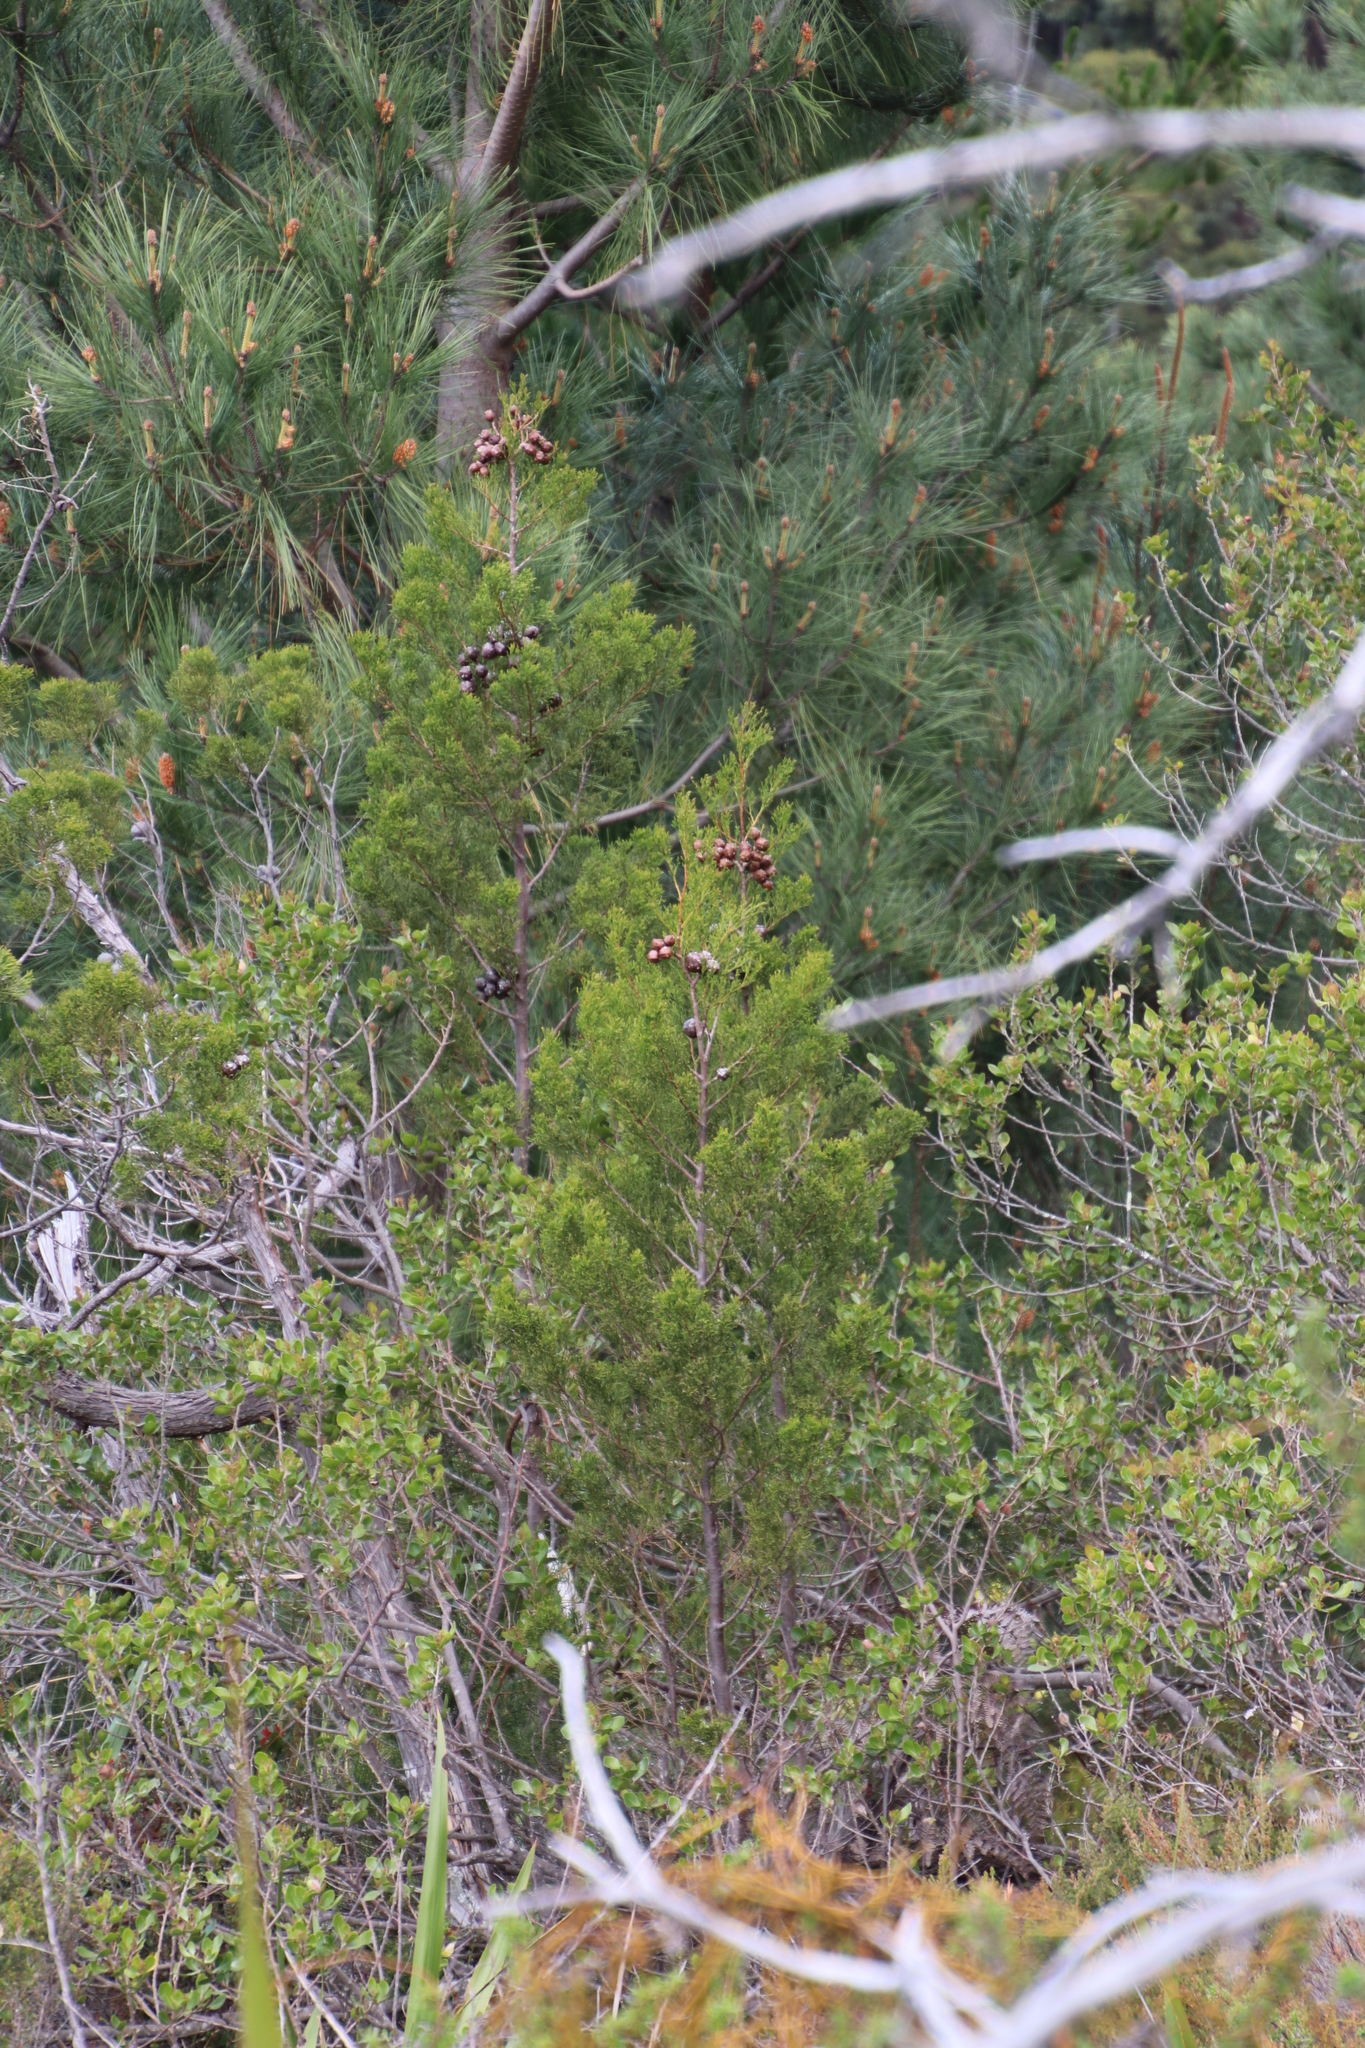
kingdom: Plantae
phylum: Tracheophyta
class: Pinopsida
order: Pinales
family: Cupressaceae
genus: Widdringtonia
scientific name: Widdringtonia nodiflora
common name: Cape cypress
